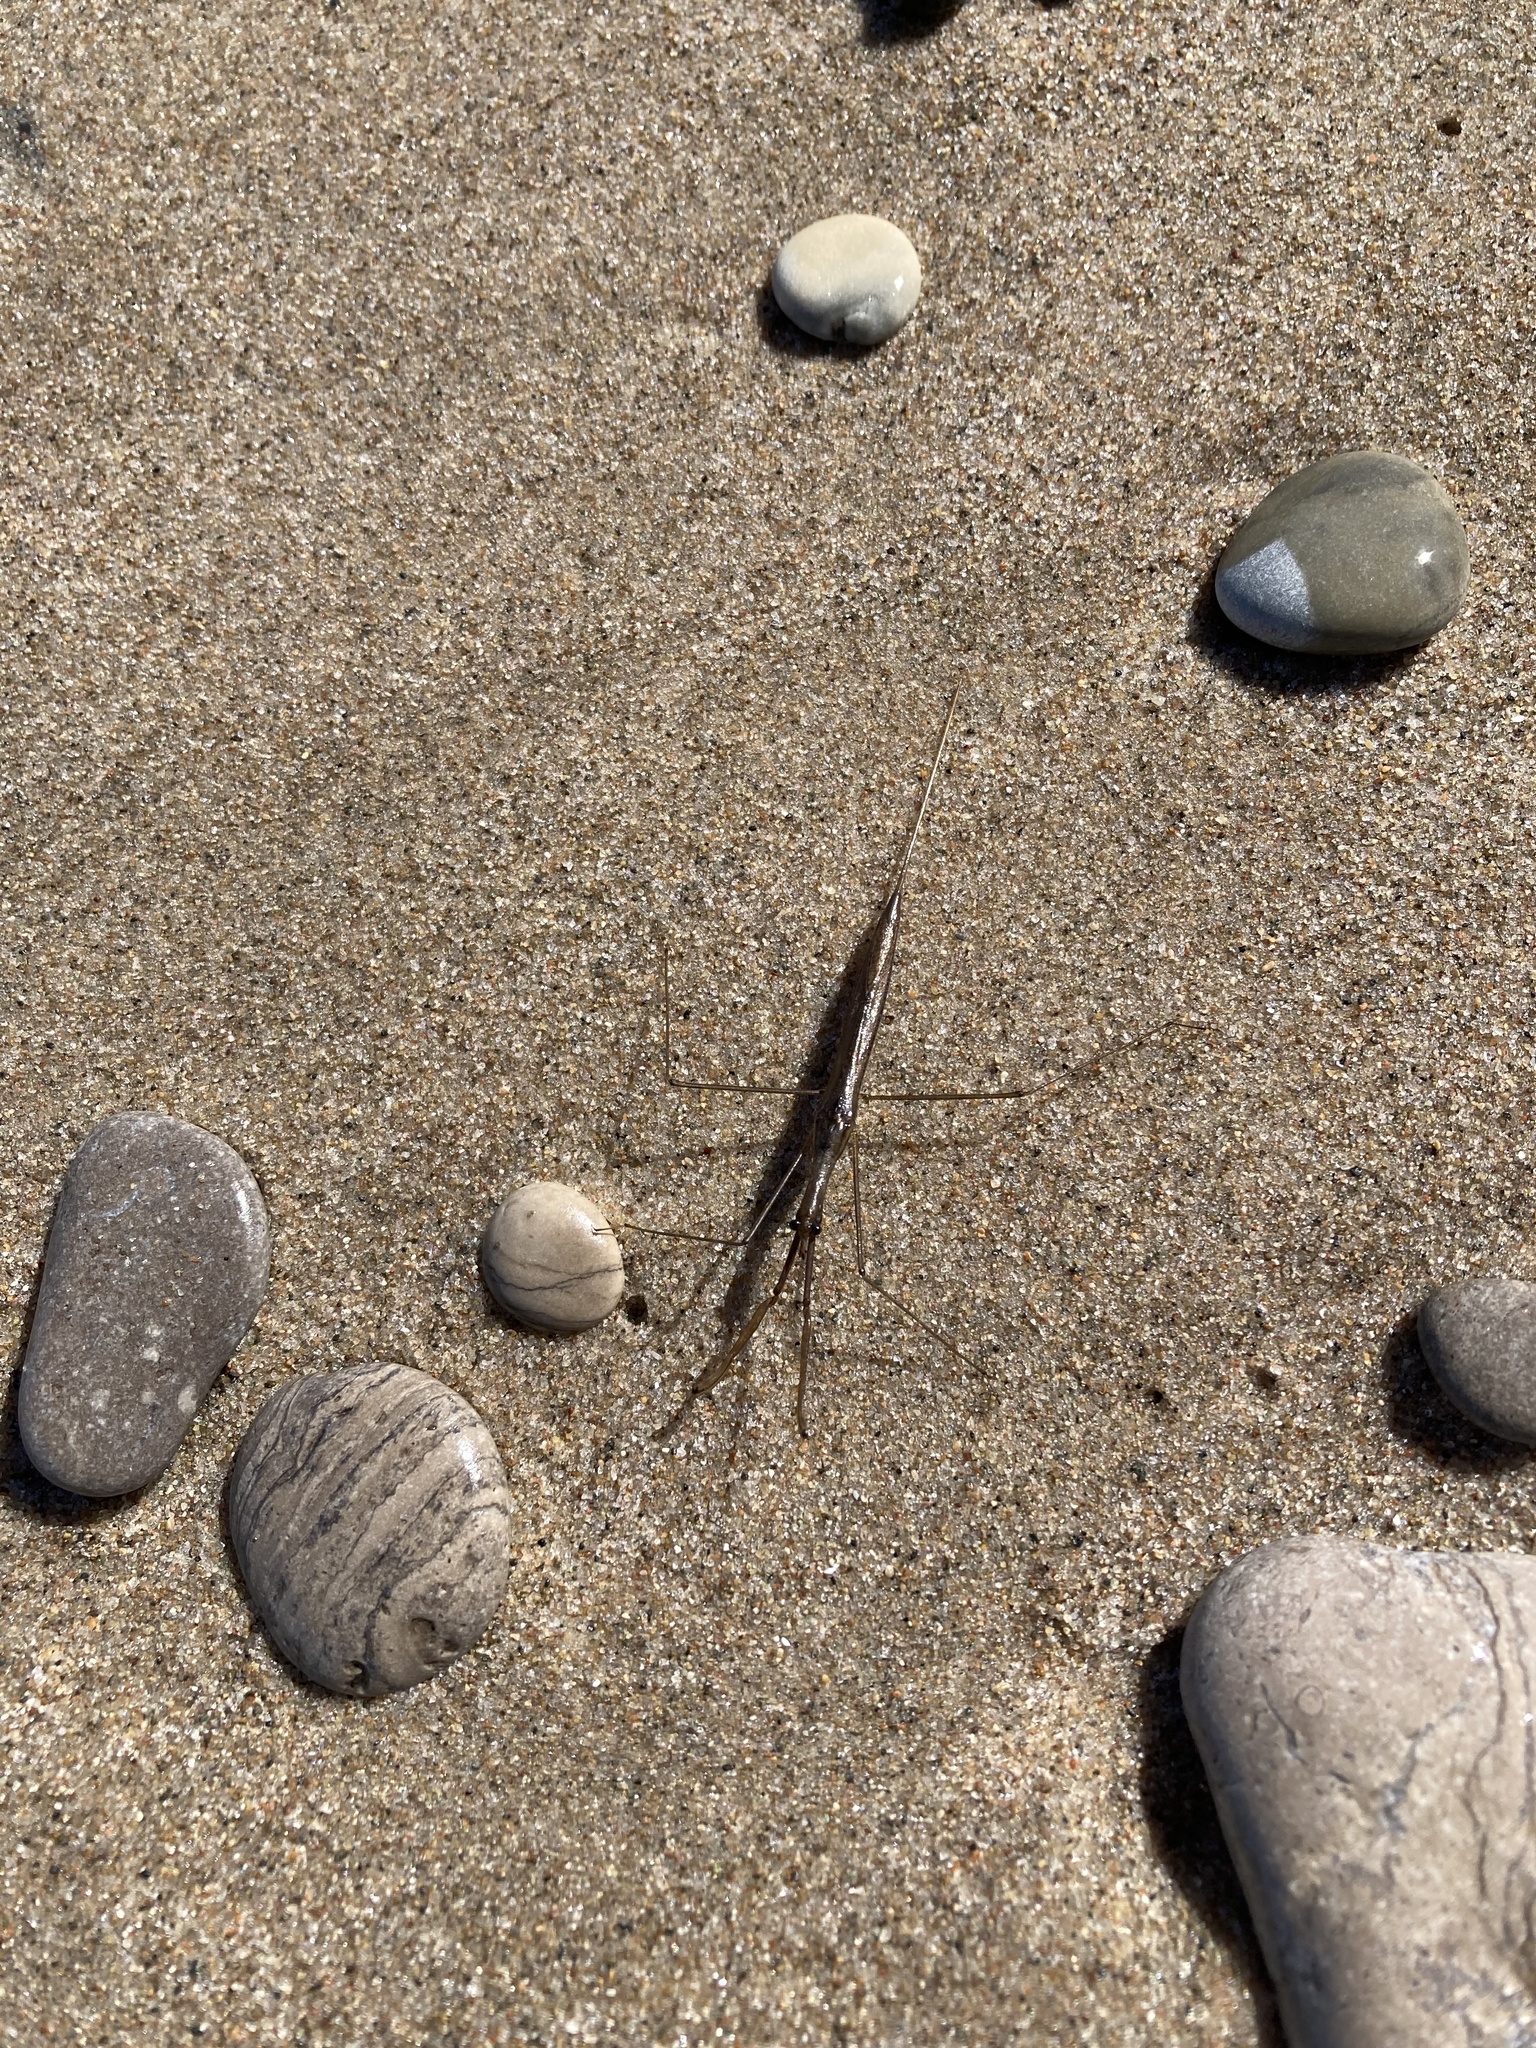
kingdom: Animalia
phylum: Arthropoda
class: Insecta
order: Hemiptera
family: Nepidae
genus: Ranatra
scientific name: Ranatra
